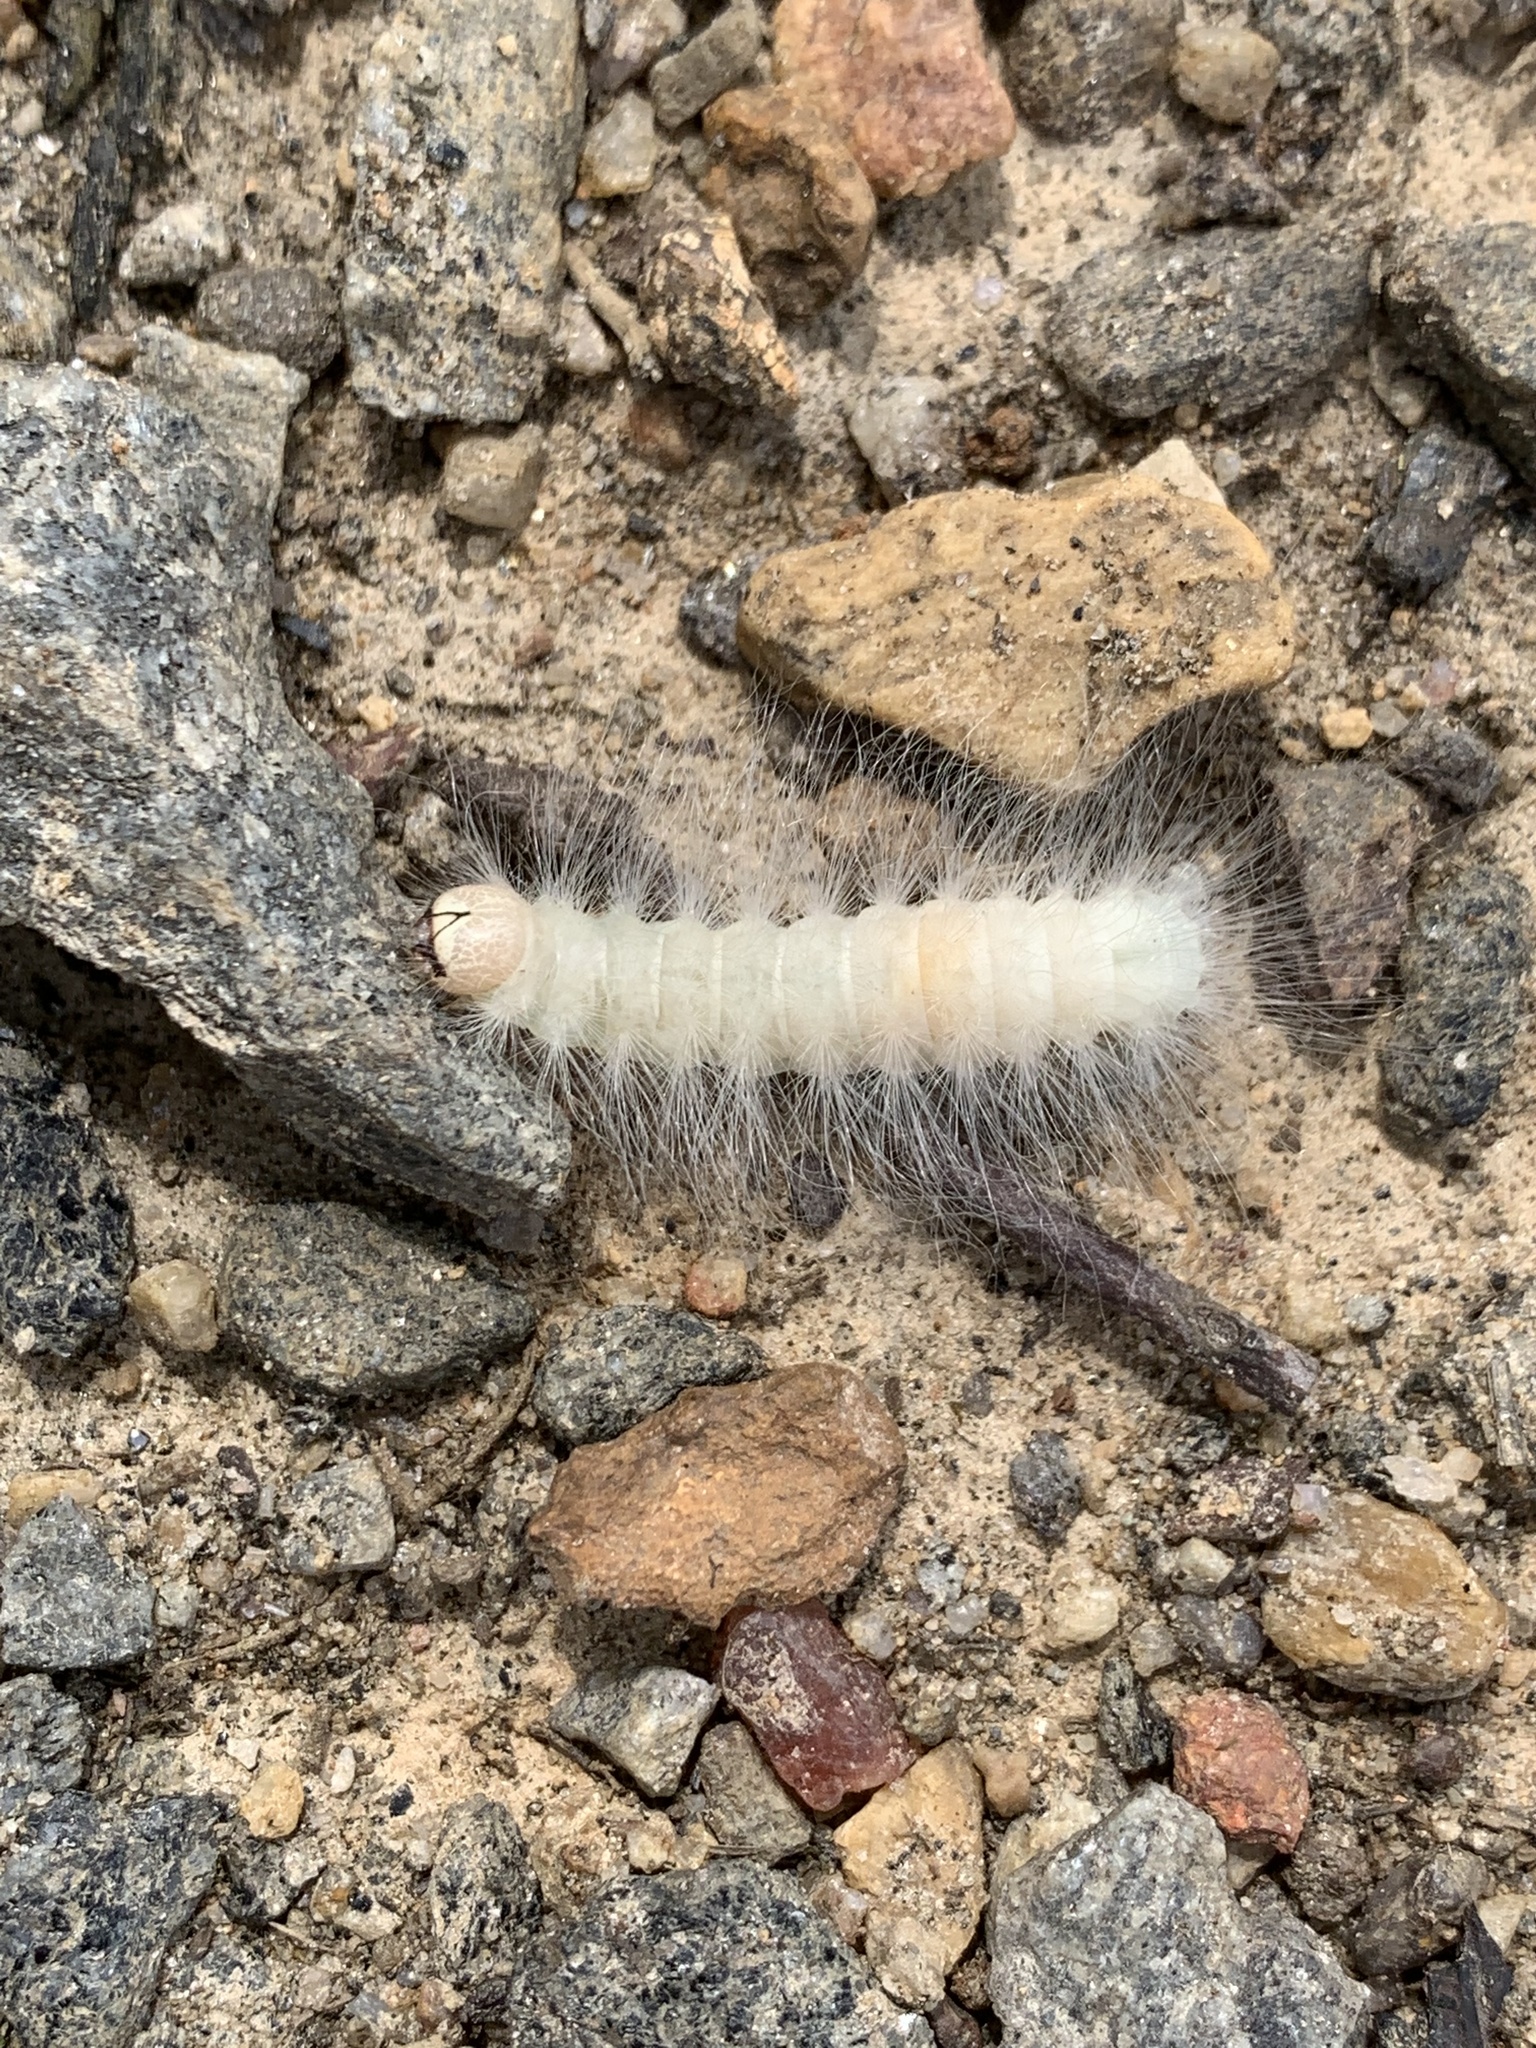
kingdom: Animalia
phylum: Arthropoda
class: Insecta
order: Lepidoptera
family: Noctuidae
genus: Charadra
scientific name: Charadra deridens
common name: Marbled tuffet
